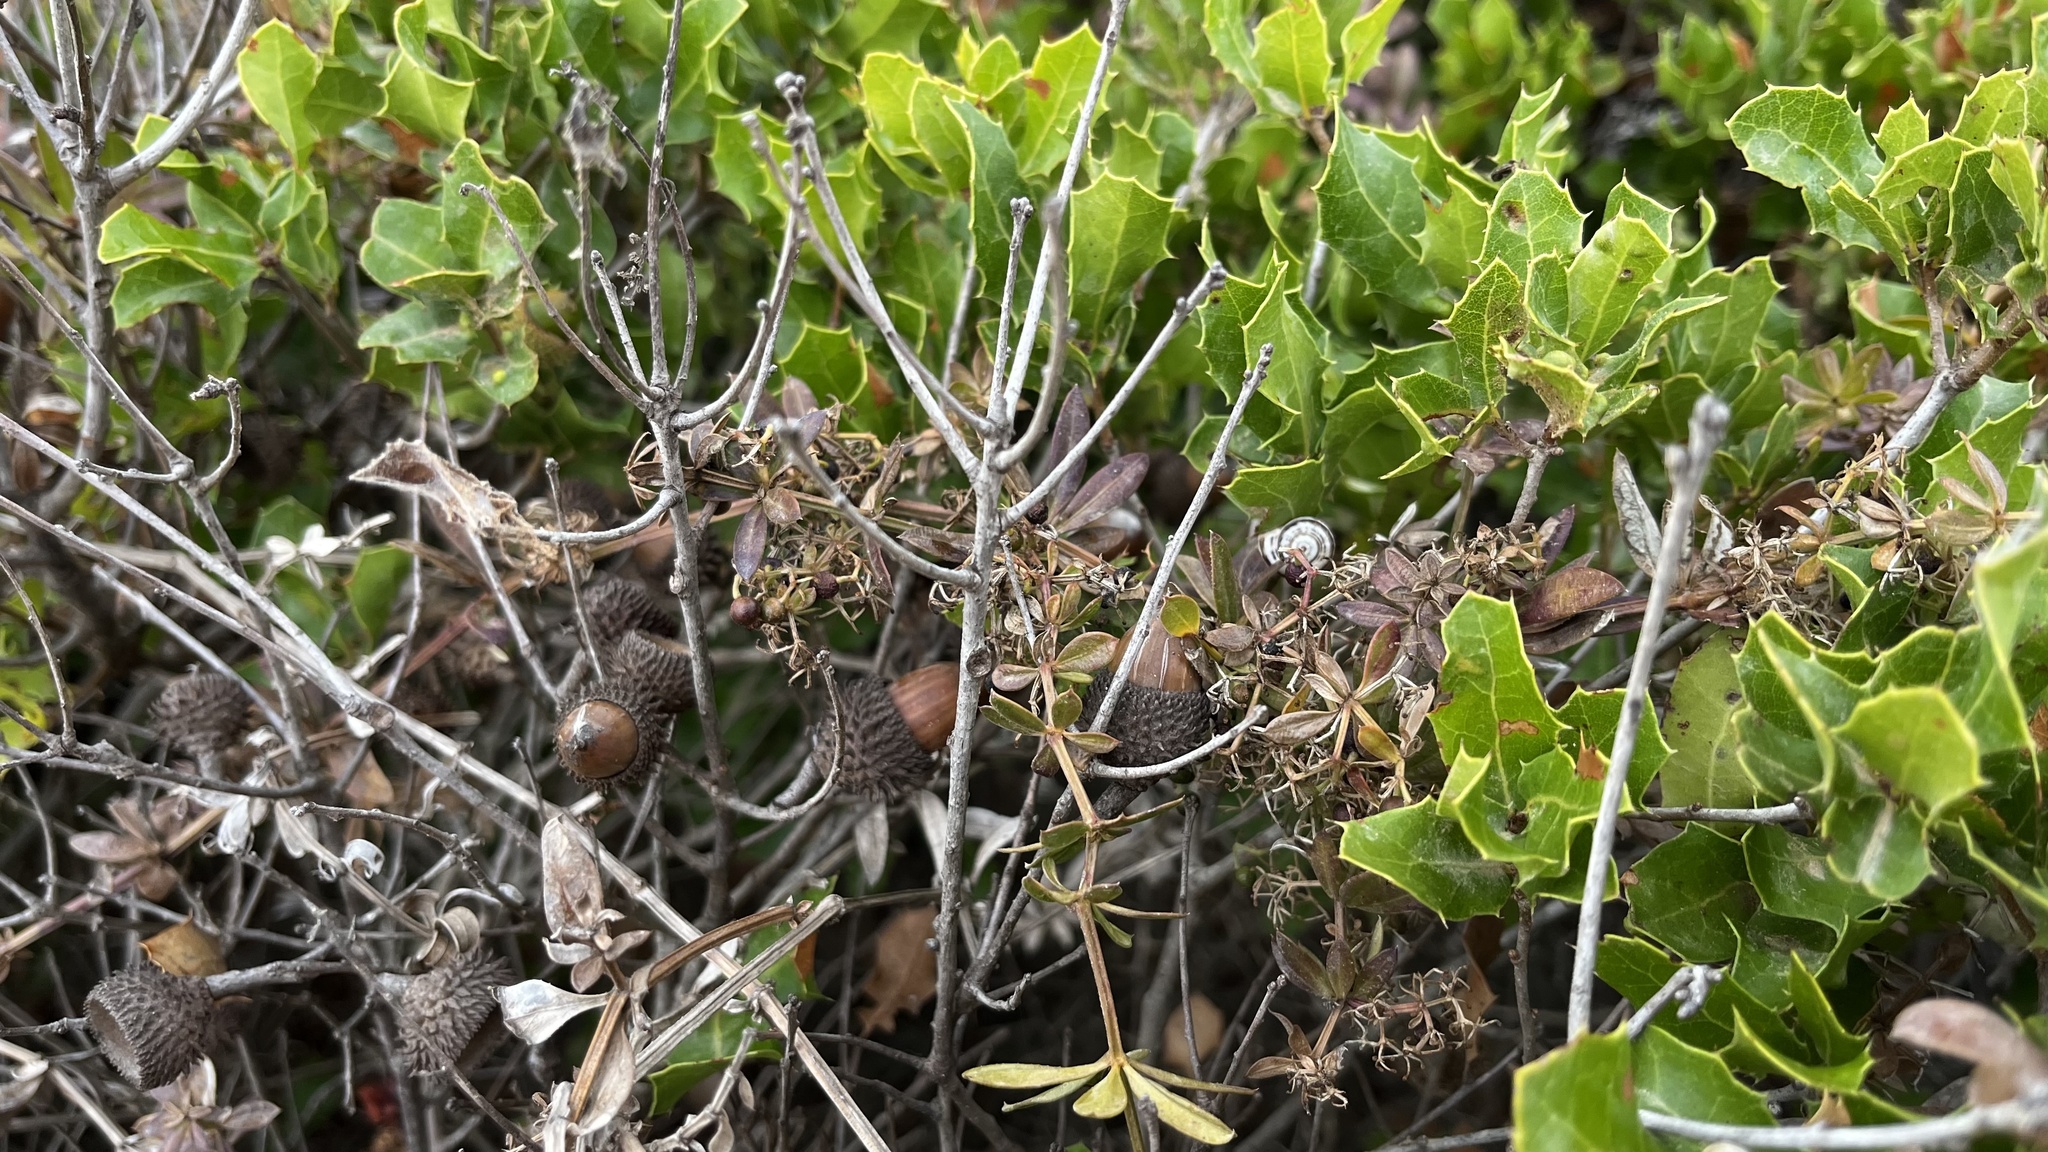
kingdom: Plantae
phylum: Tracheophyta
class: Magnoliopsida
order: Fagales
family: Fagaceae
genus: Quercus
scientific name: Quercus coccifera
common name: Kermes oak
